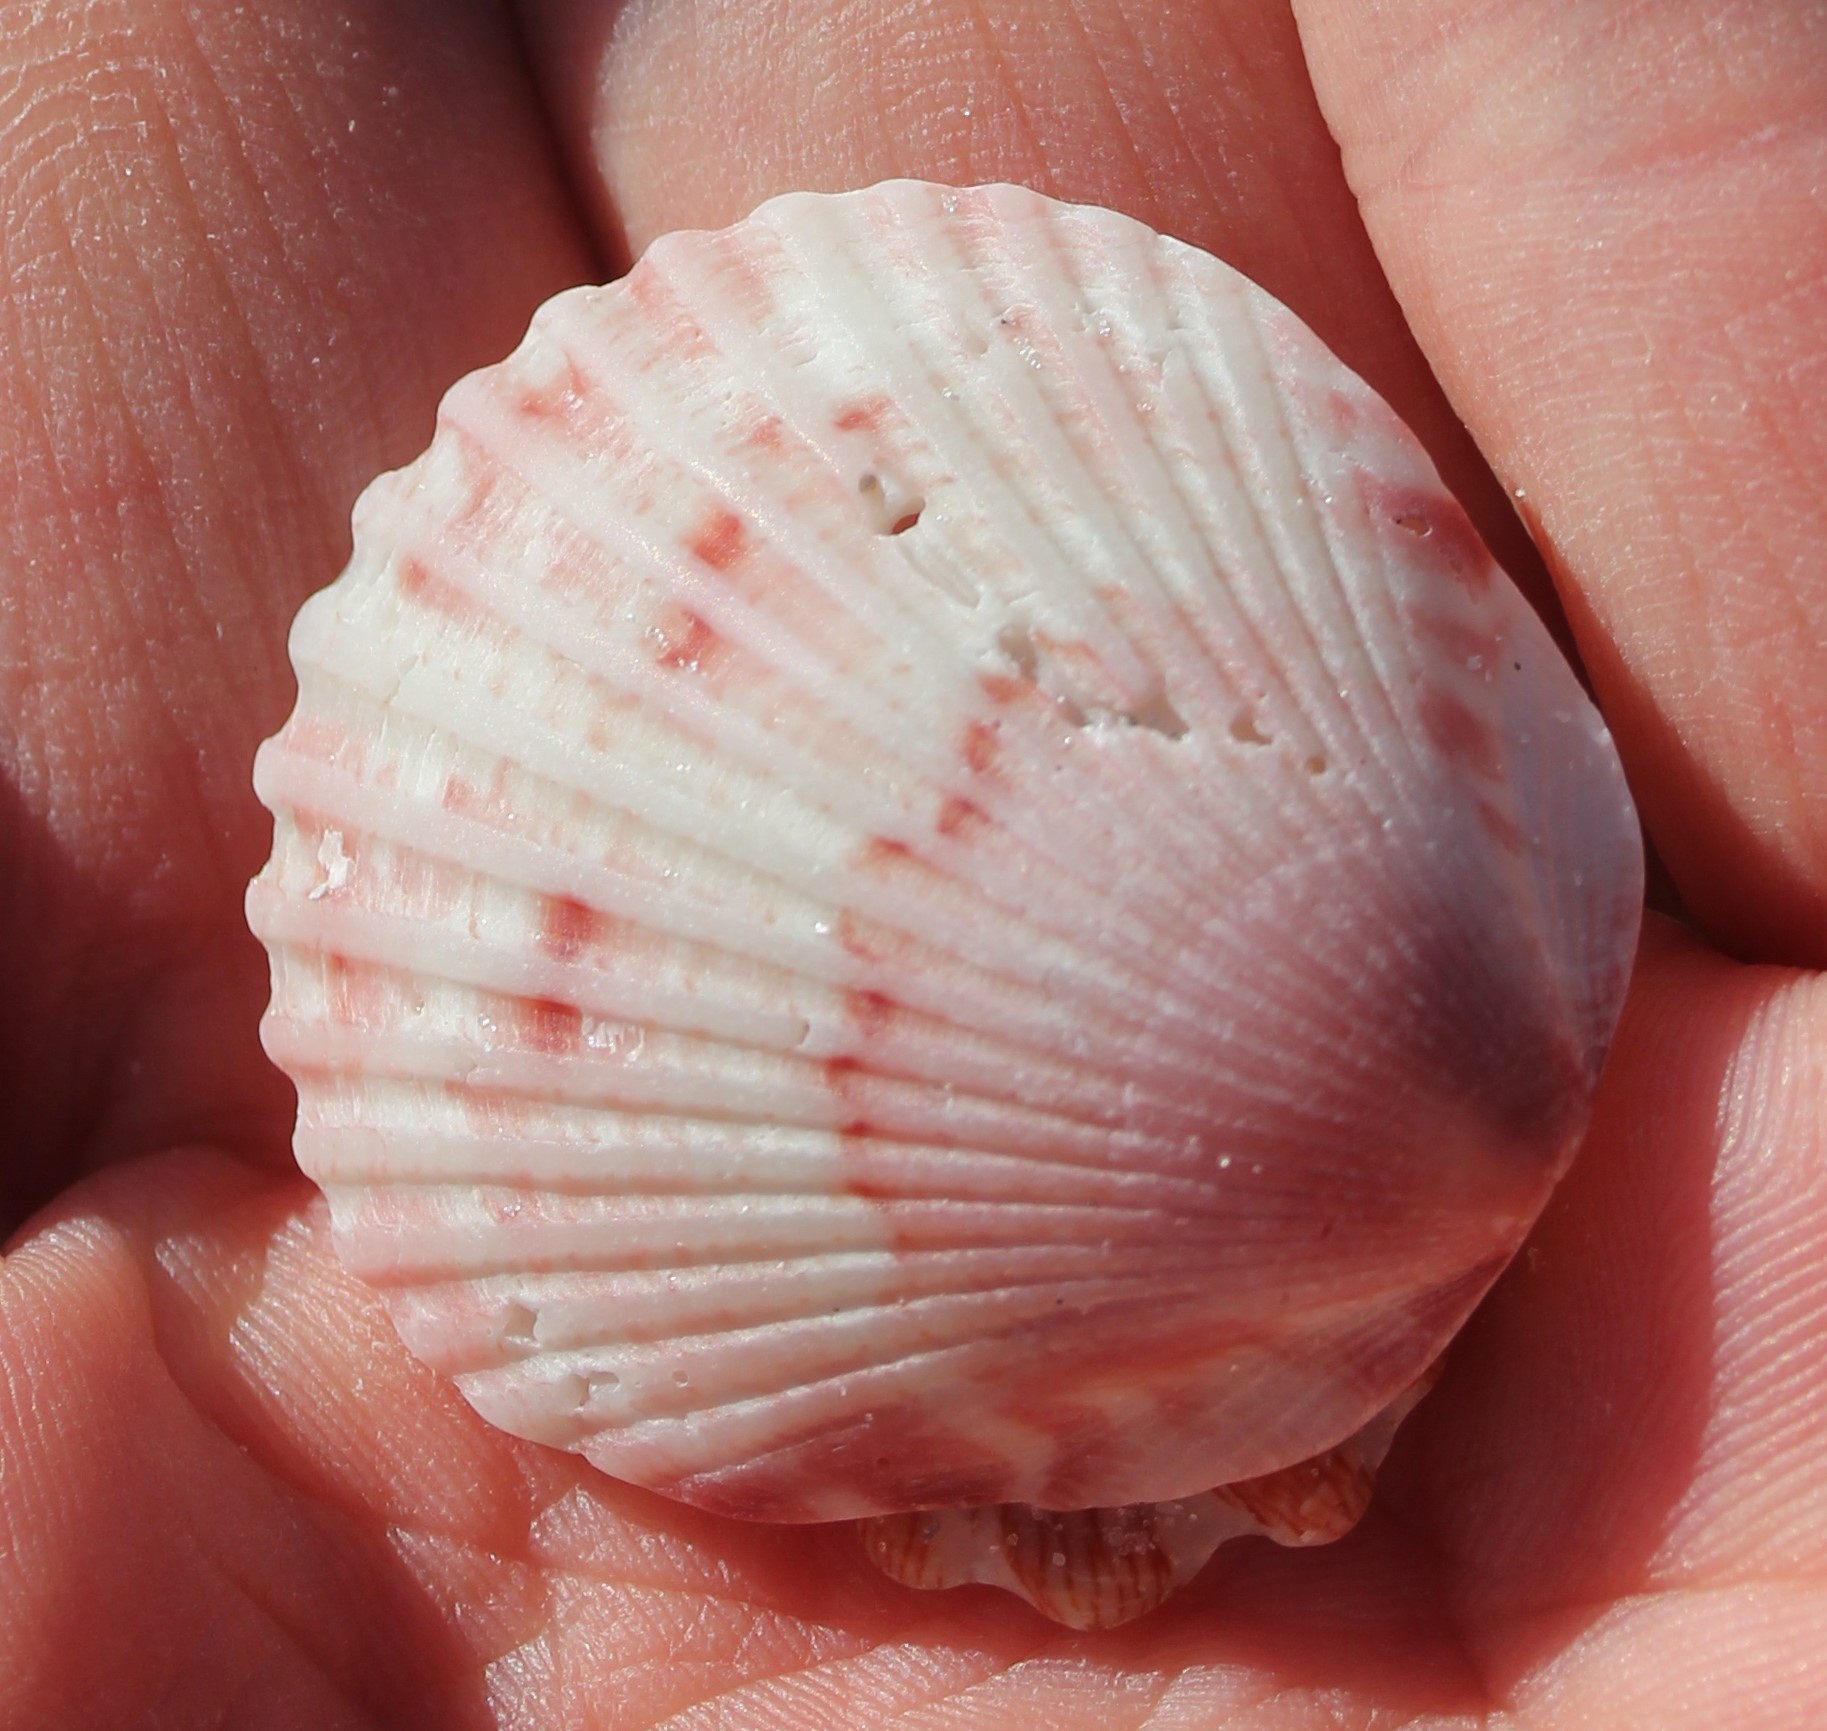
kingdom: Animalia
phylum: Mollusca
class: Bivalvia
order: Pectinida
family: Pectinidae
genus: Argopecten
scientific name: Argopecten gibbus
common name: Atlantic calico scallop
